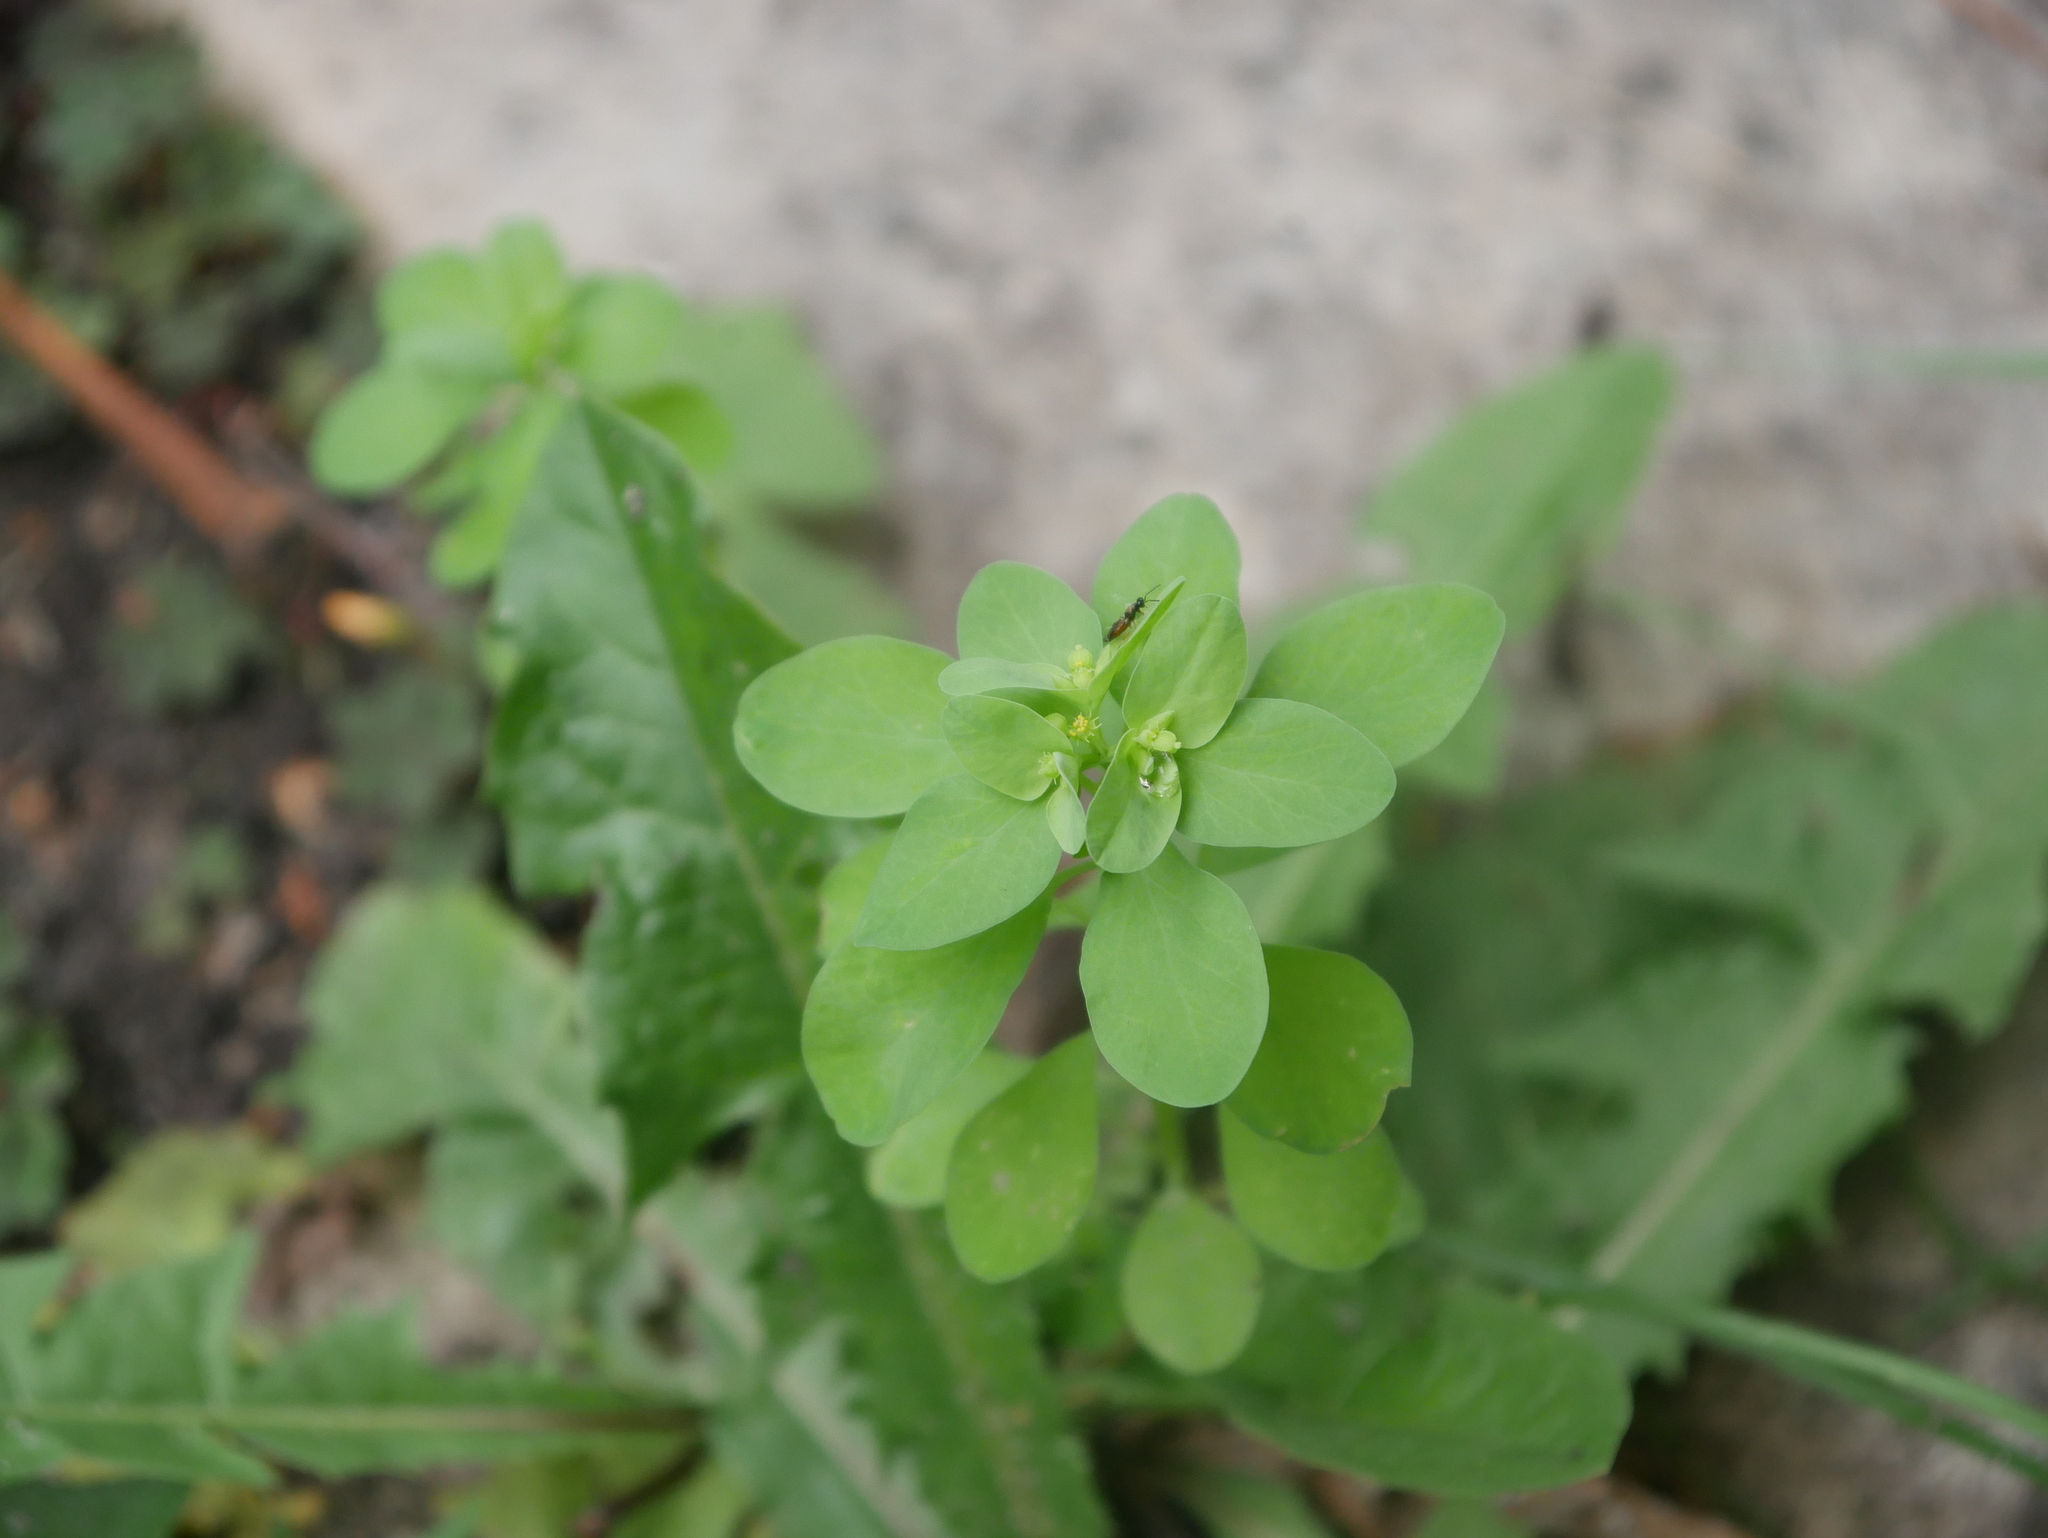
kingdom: Plantae
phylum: Tracheophyta
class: Magnoliopsida
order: Malpighiales
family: Euphorbiaceae
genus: Euphorbia
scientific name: Euphorbia peplus
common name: Petty spurge
